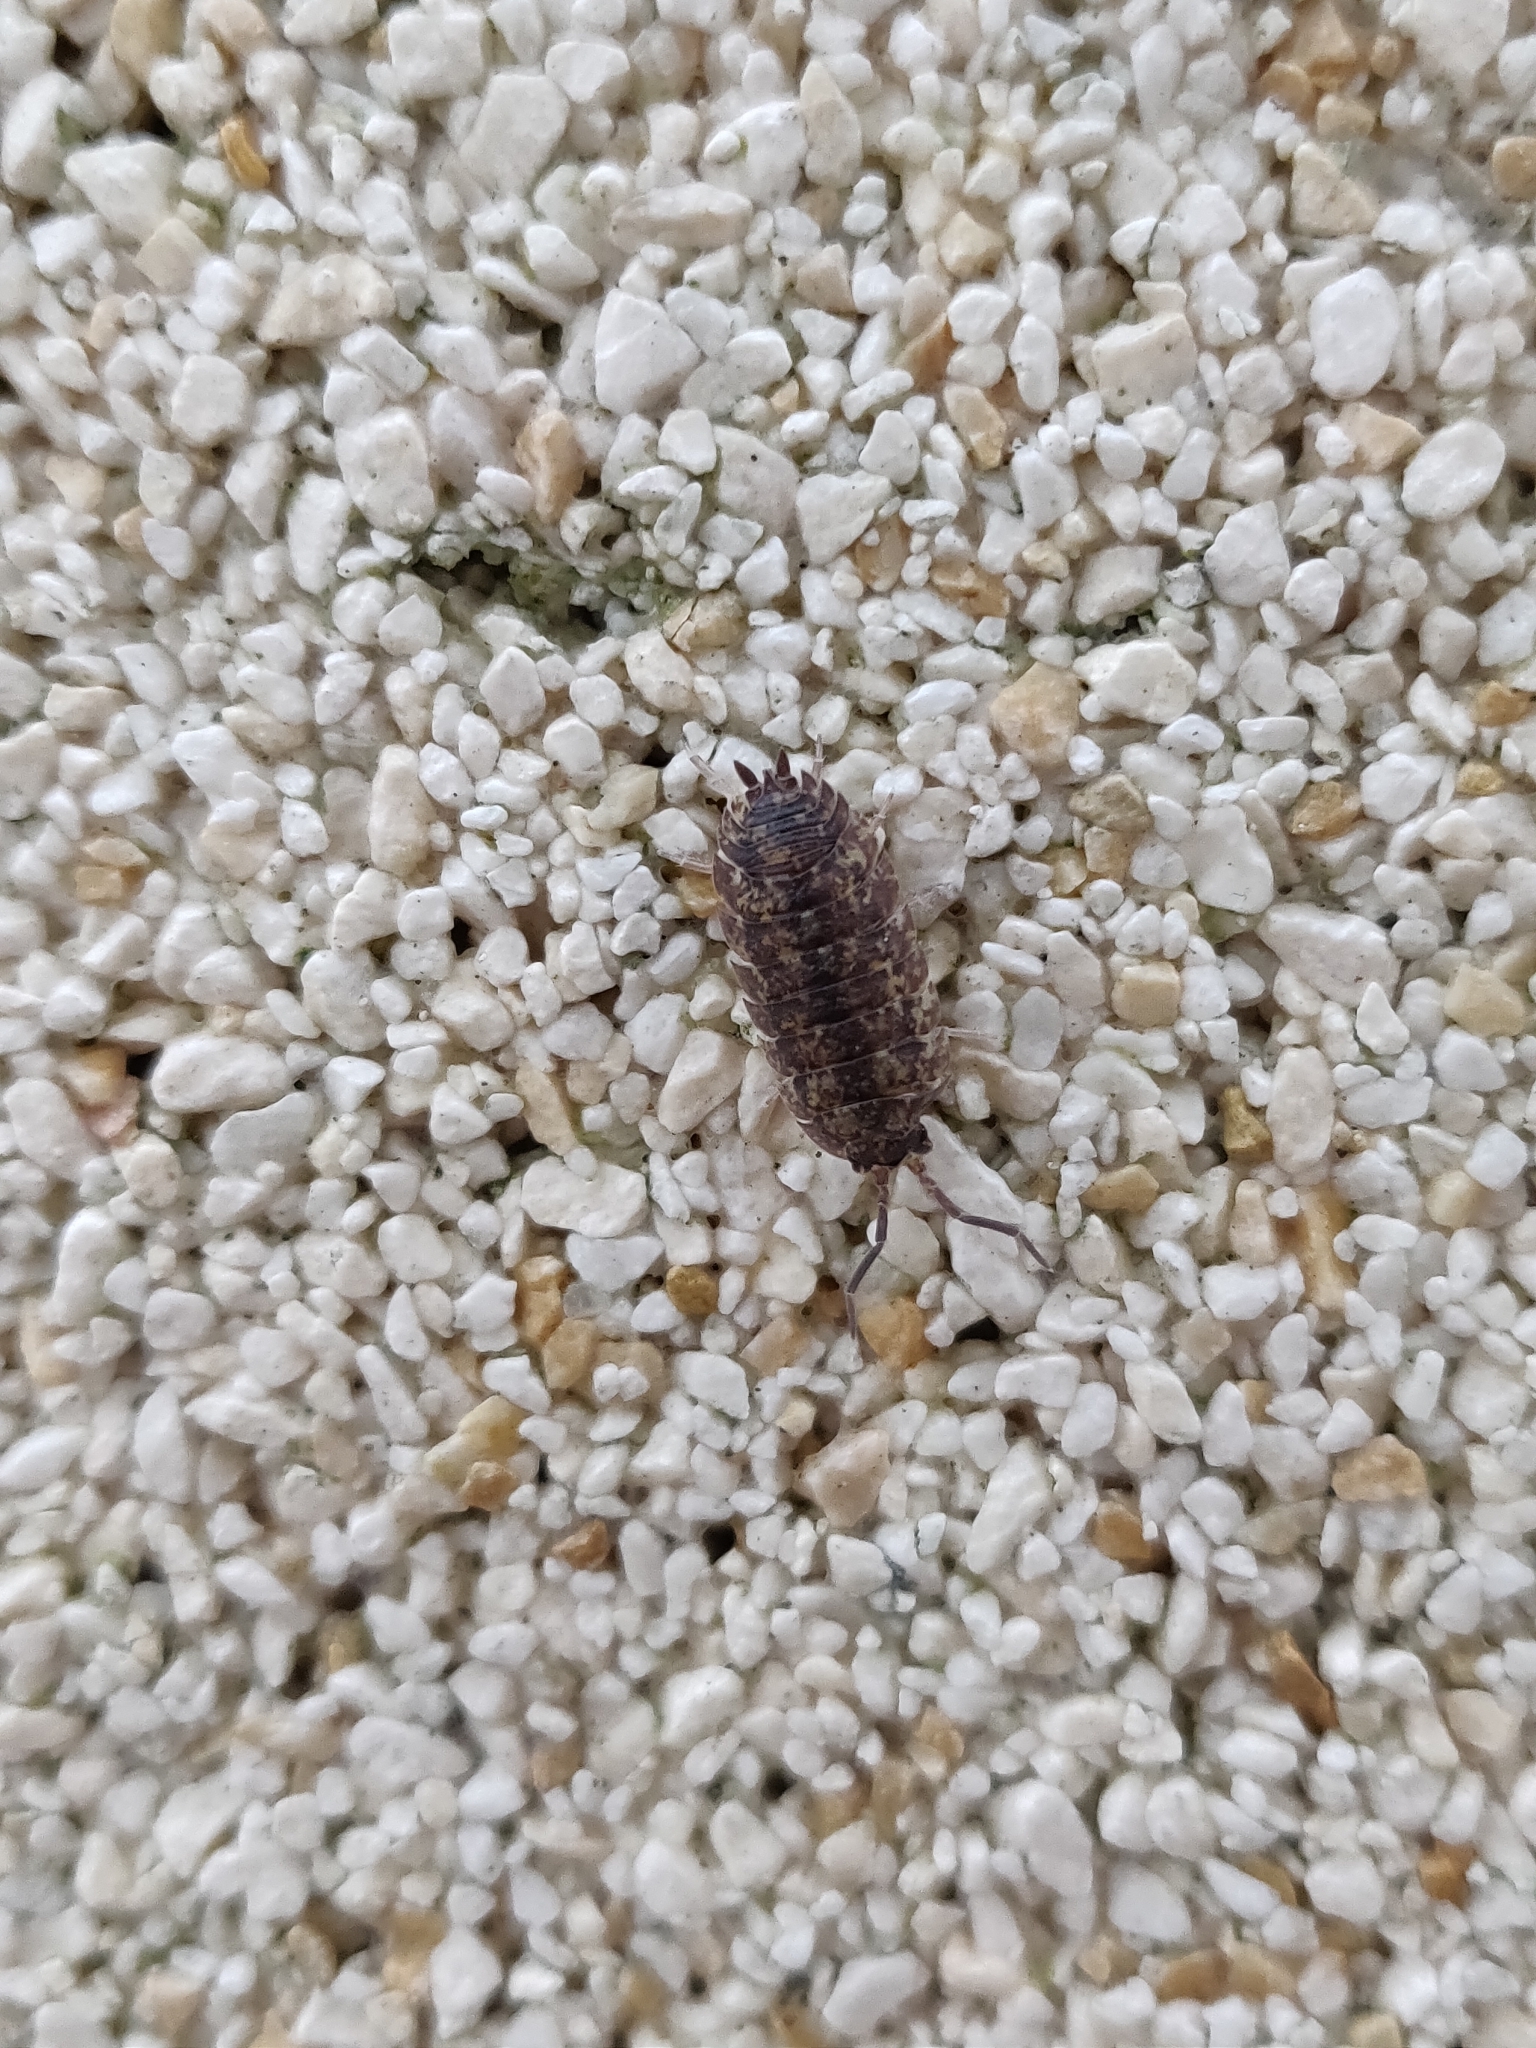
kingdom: Animalia
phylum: Arthropoda
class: Malacostraca
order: Isopoda
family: Porcellionidae
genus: Porcellio
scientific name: Porcellio scaber
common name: Common rough woodlouse
